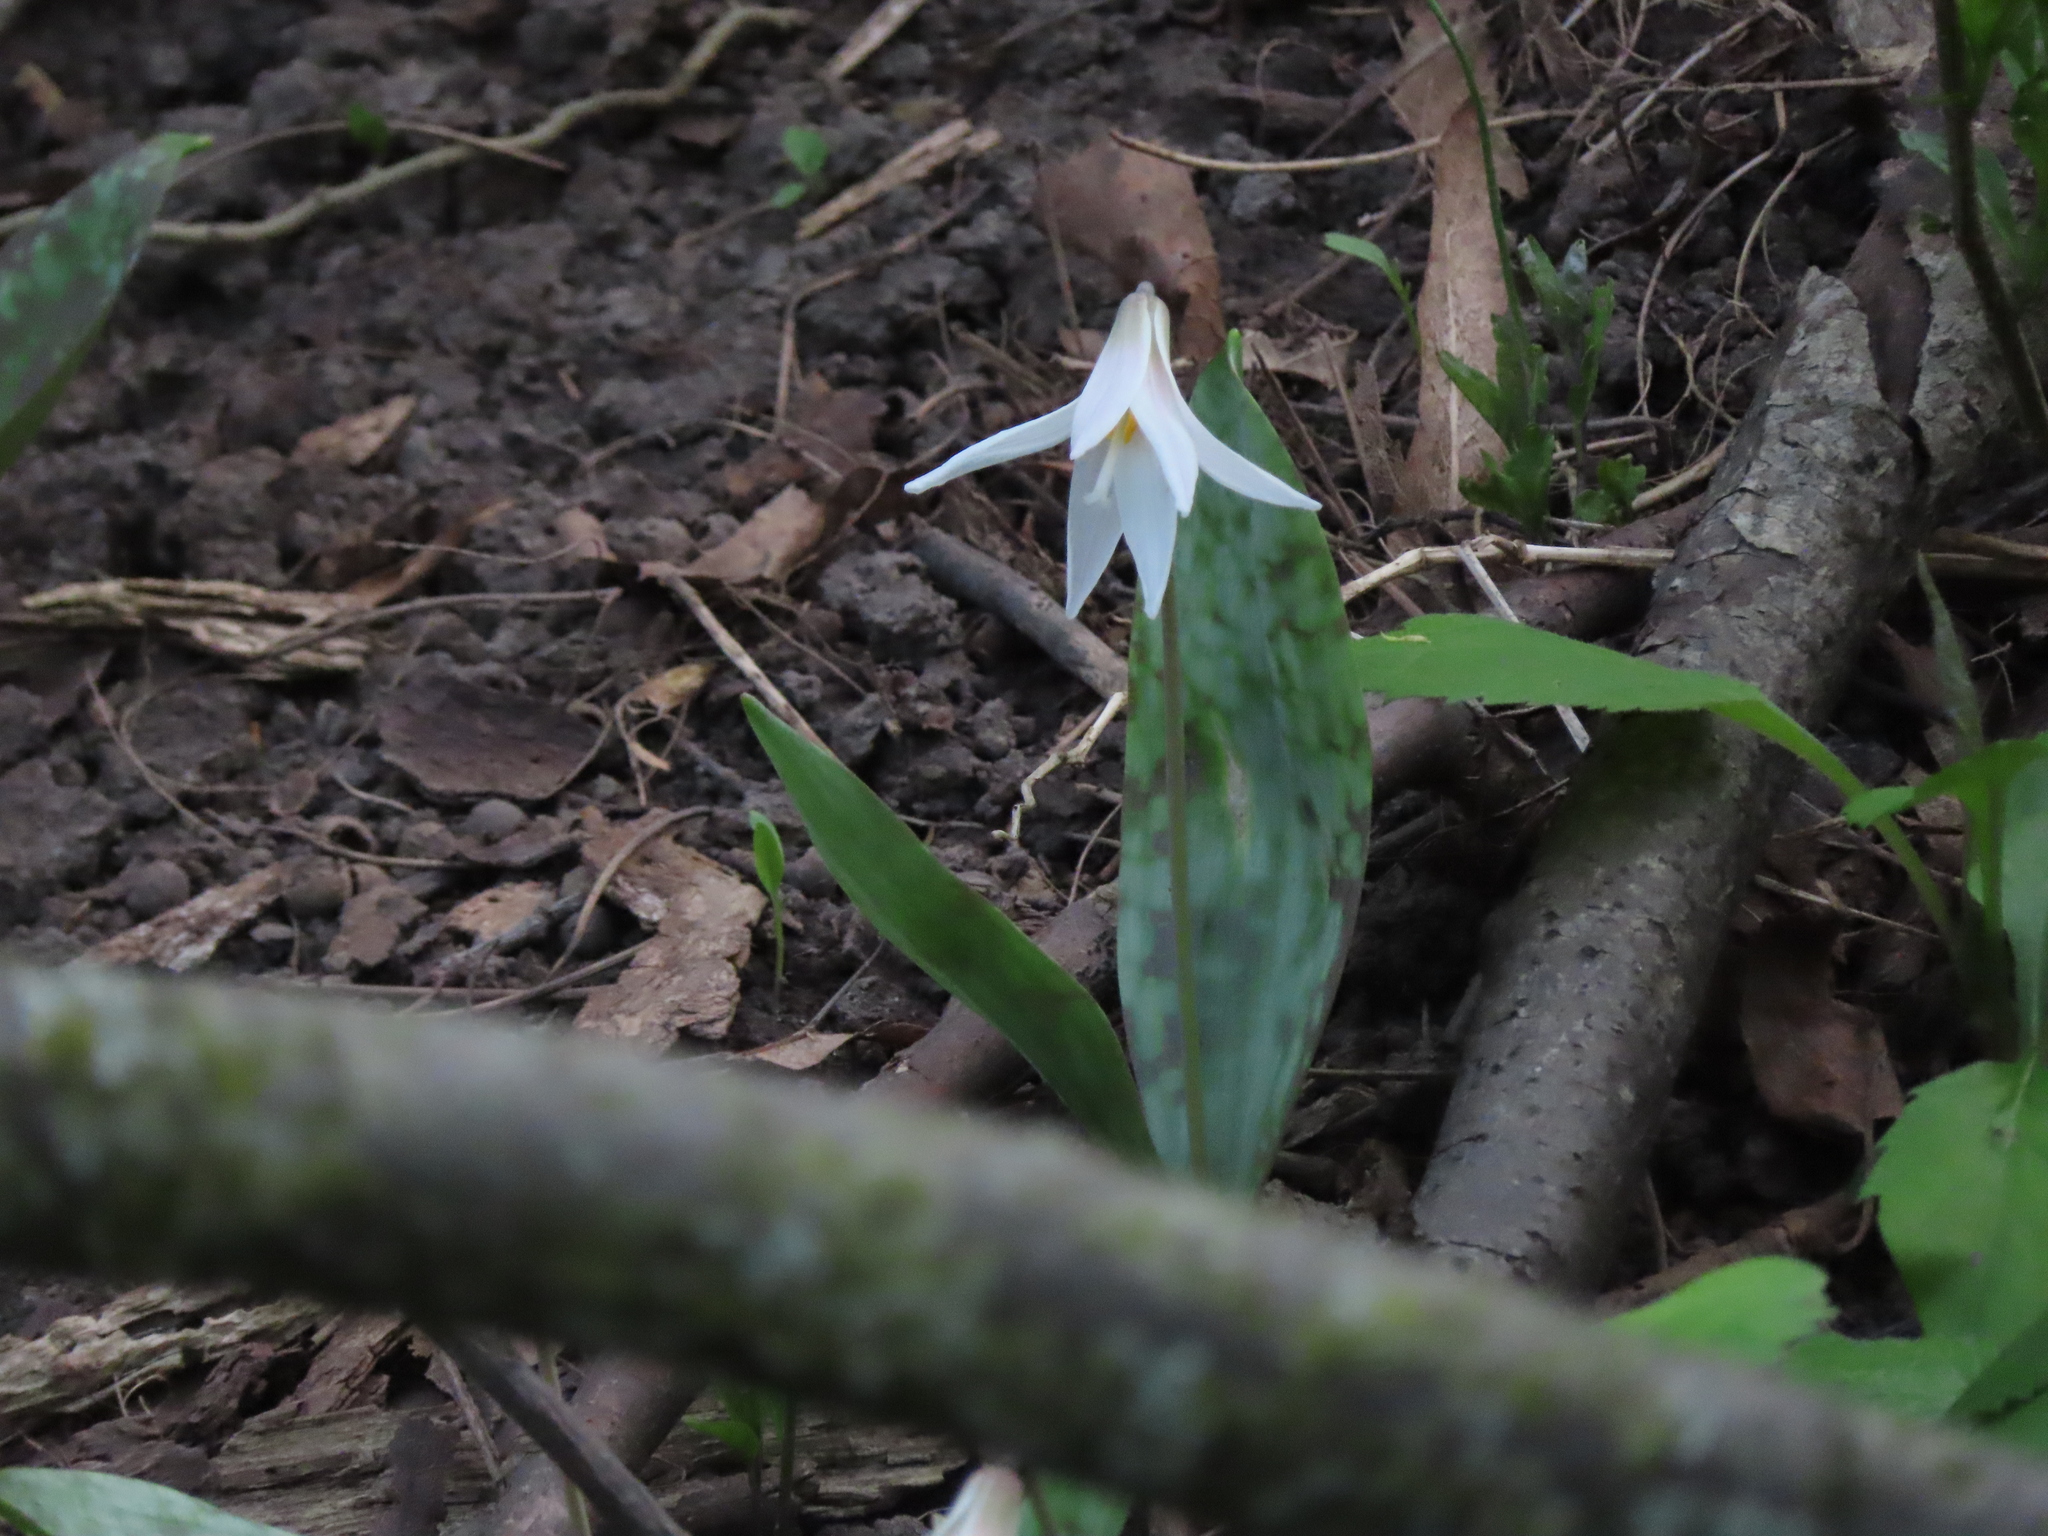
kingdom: Plantae
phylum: Tracheophyta
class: Liliopsida
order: Liliales
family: Liliaceae
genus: Erythronium
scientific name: Erythronium albidum
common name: White trout-lily
